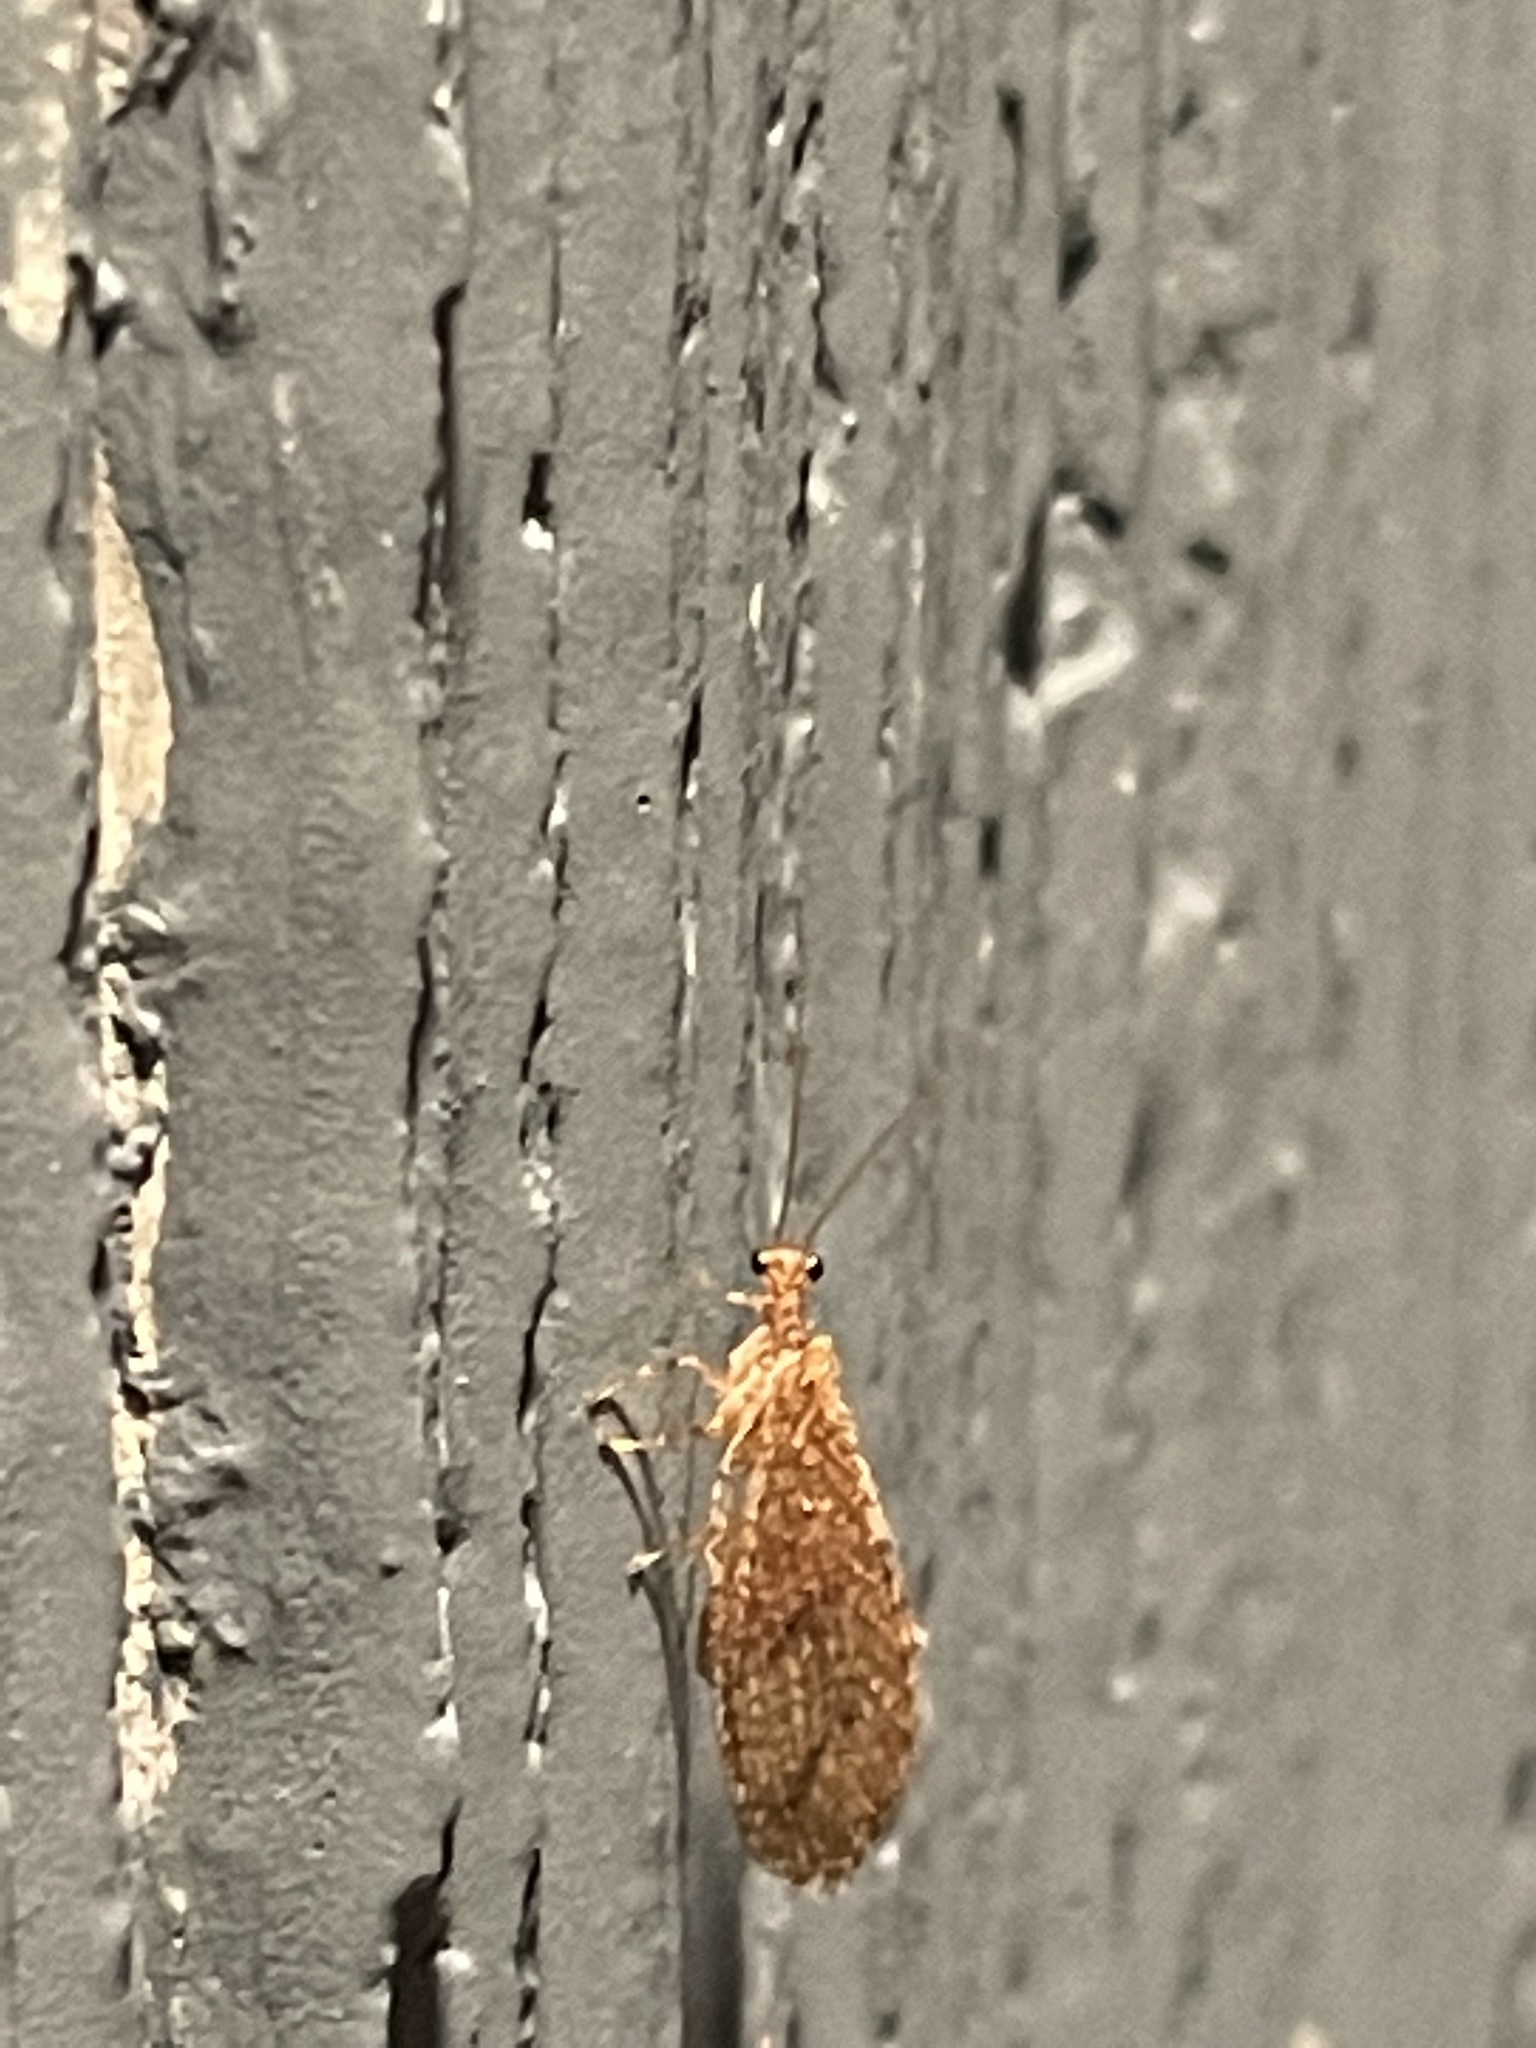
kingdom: Animalia
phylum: Arthropoda
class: Insecta
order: Neuroptera
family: Hemerobiidae
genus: Micromus
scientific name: Micromus posticus
